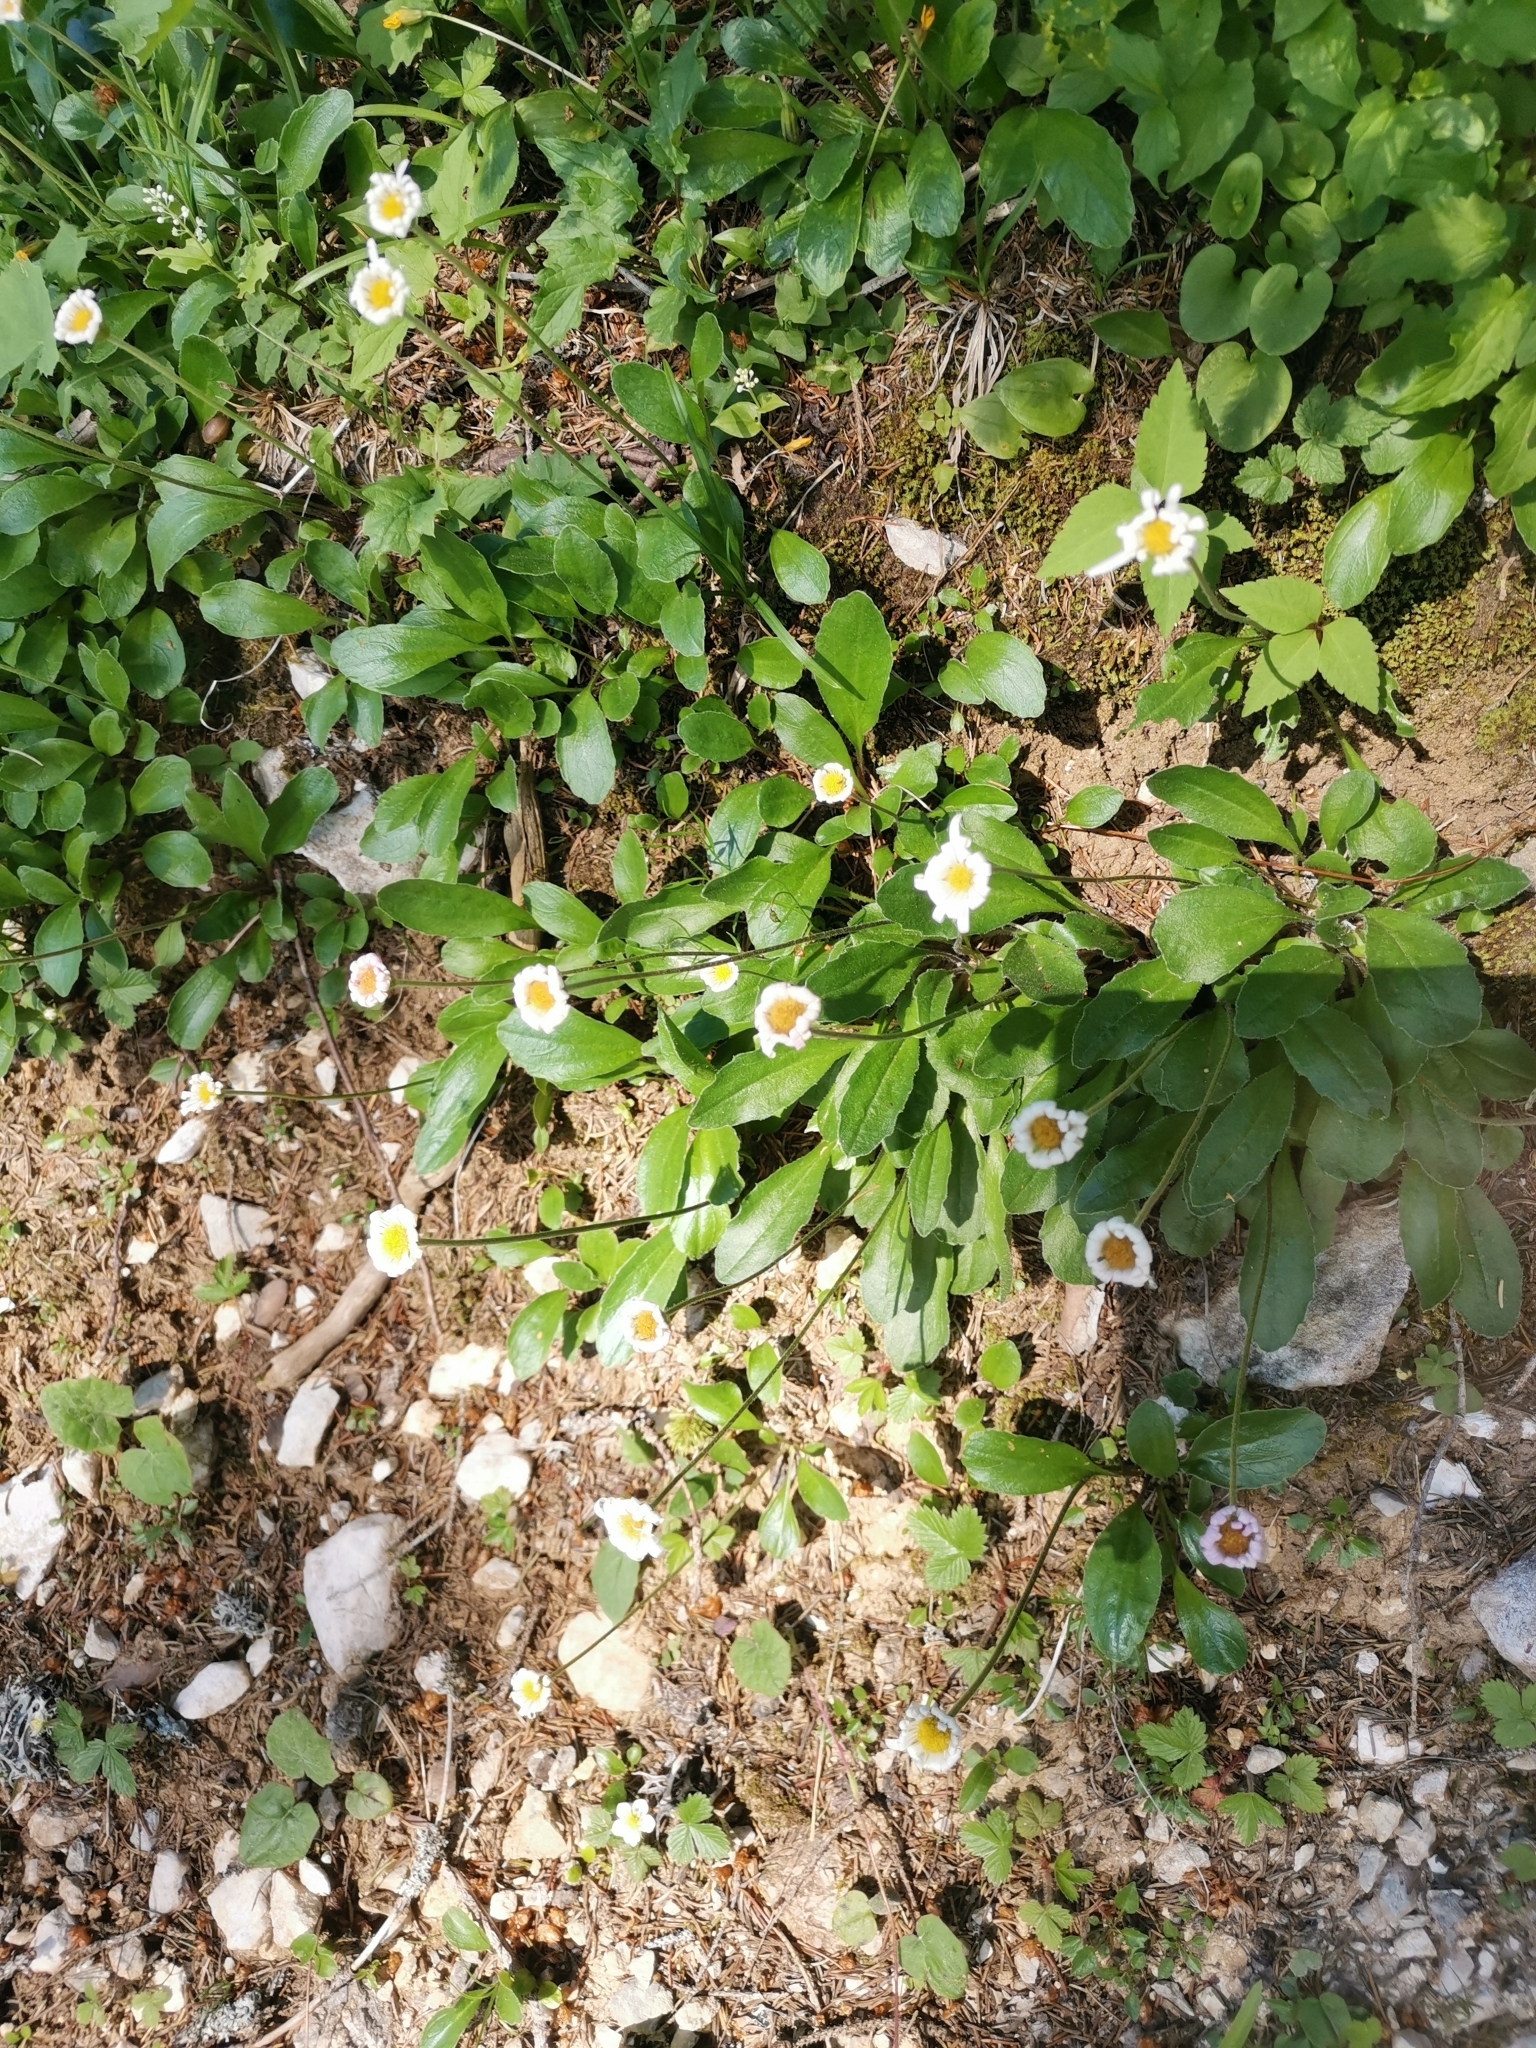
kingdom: Plantae
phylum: Tracheophyta
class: Magnoliopsida
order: Asterales
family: Asteraceae
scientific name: Asteraceae
